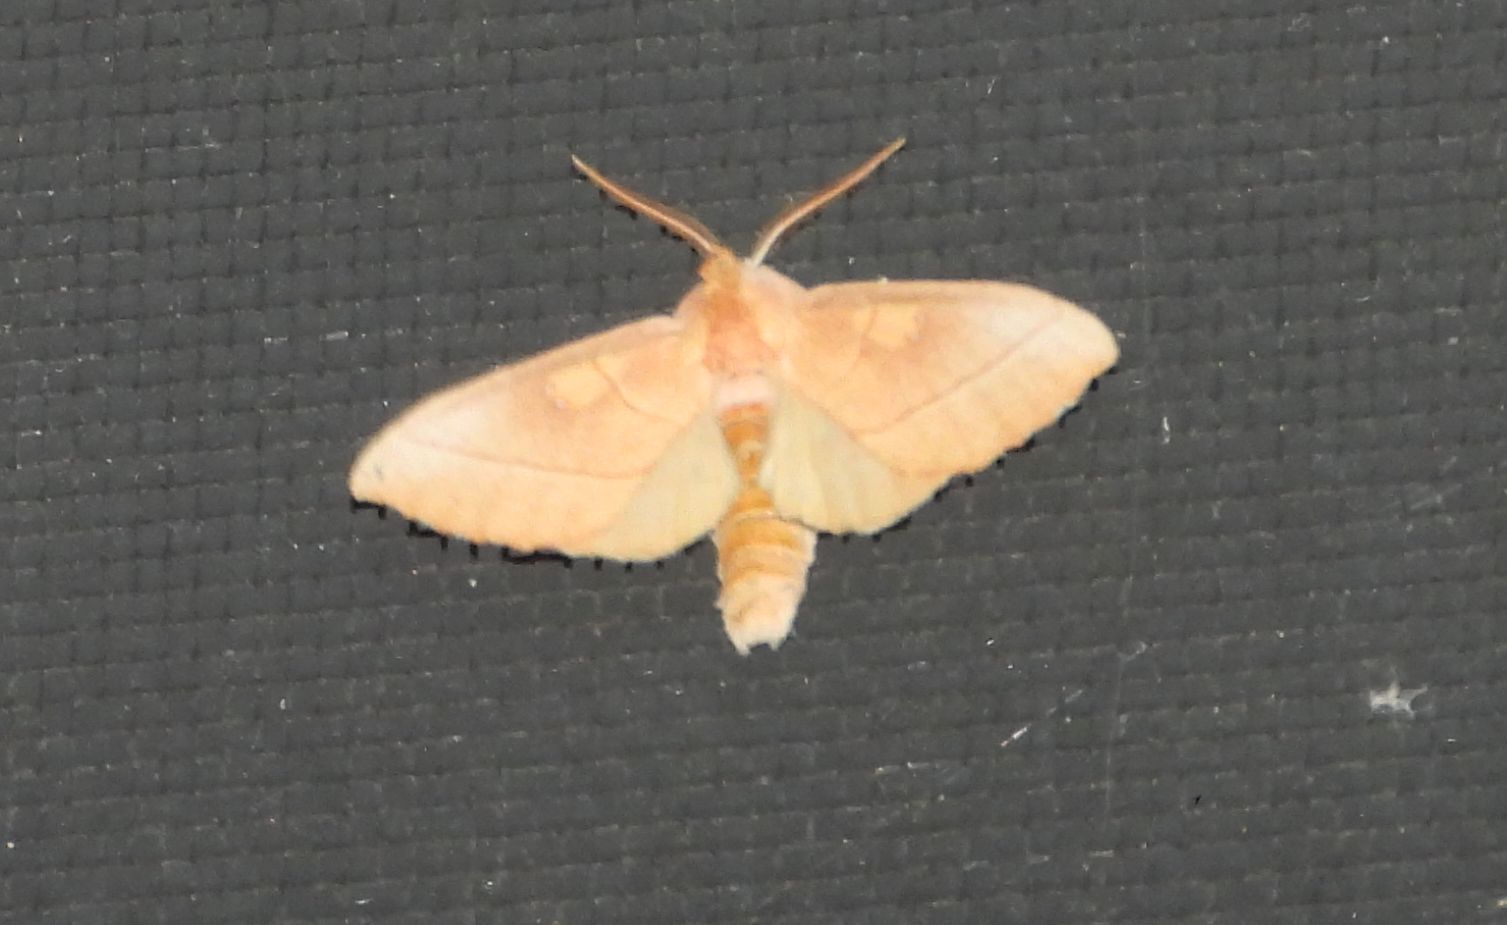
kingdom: Animalia
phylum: Arthropoda
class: Insecta
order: Lepidoptera
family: Notodontidae
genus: Nadata
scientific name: Nadata gibbosa
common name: White-dotted prominent
